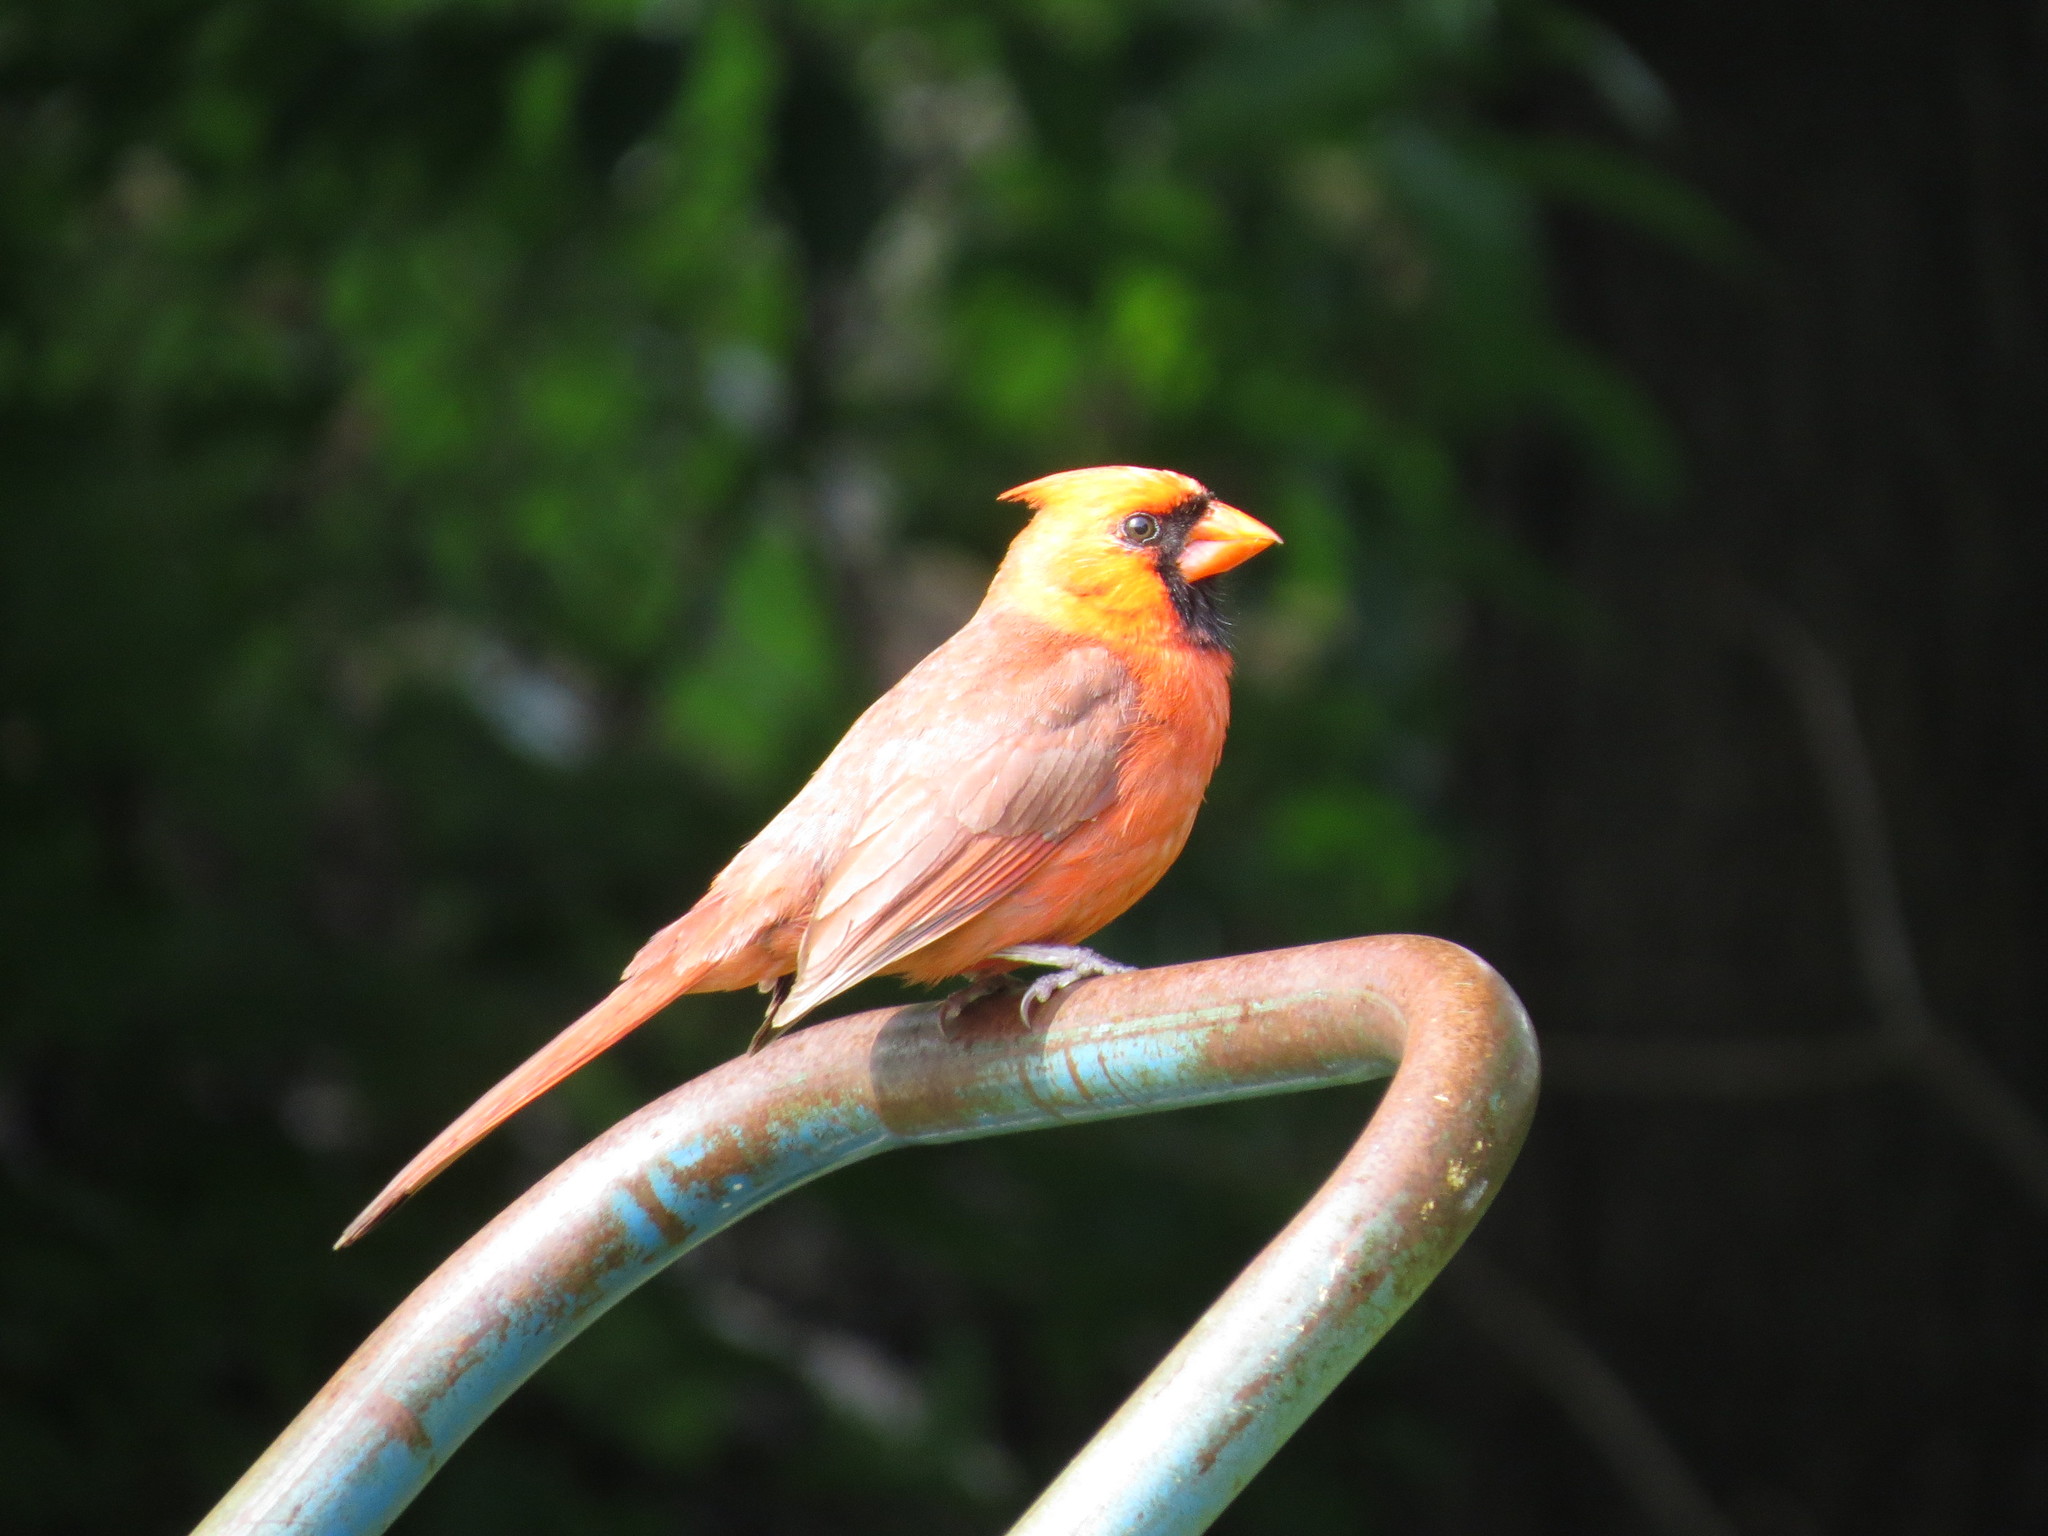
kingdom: Animalia
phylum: Chordata
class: Aves
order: Passeriformes
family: Cardinalidae
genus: Cardinalis
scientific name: Cardinalis cardinalis
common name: Northern cardinal
